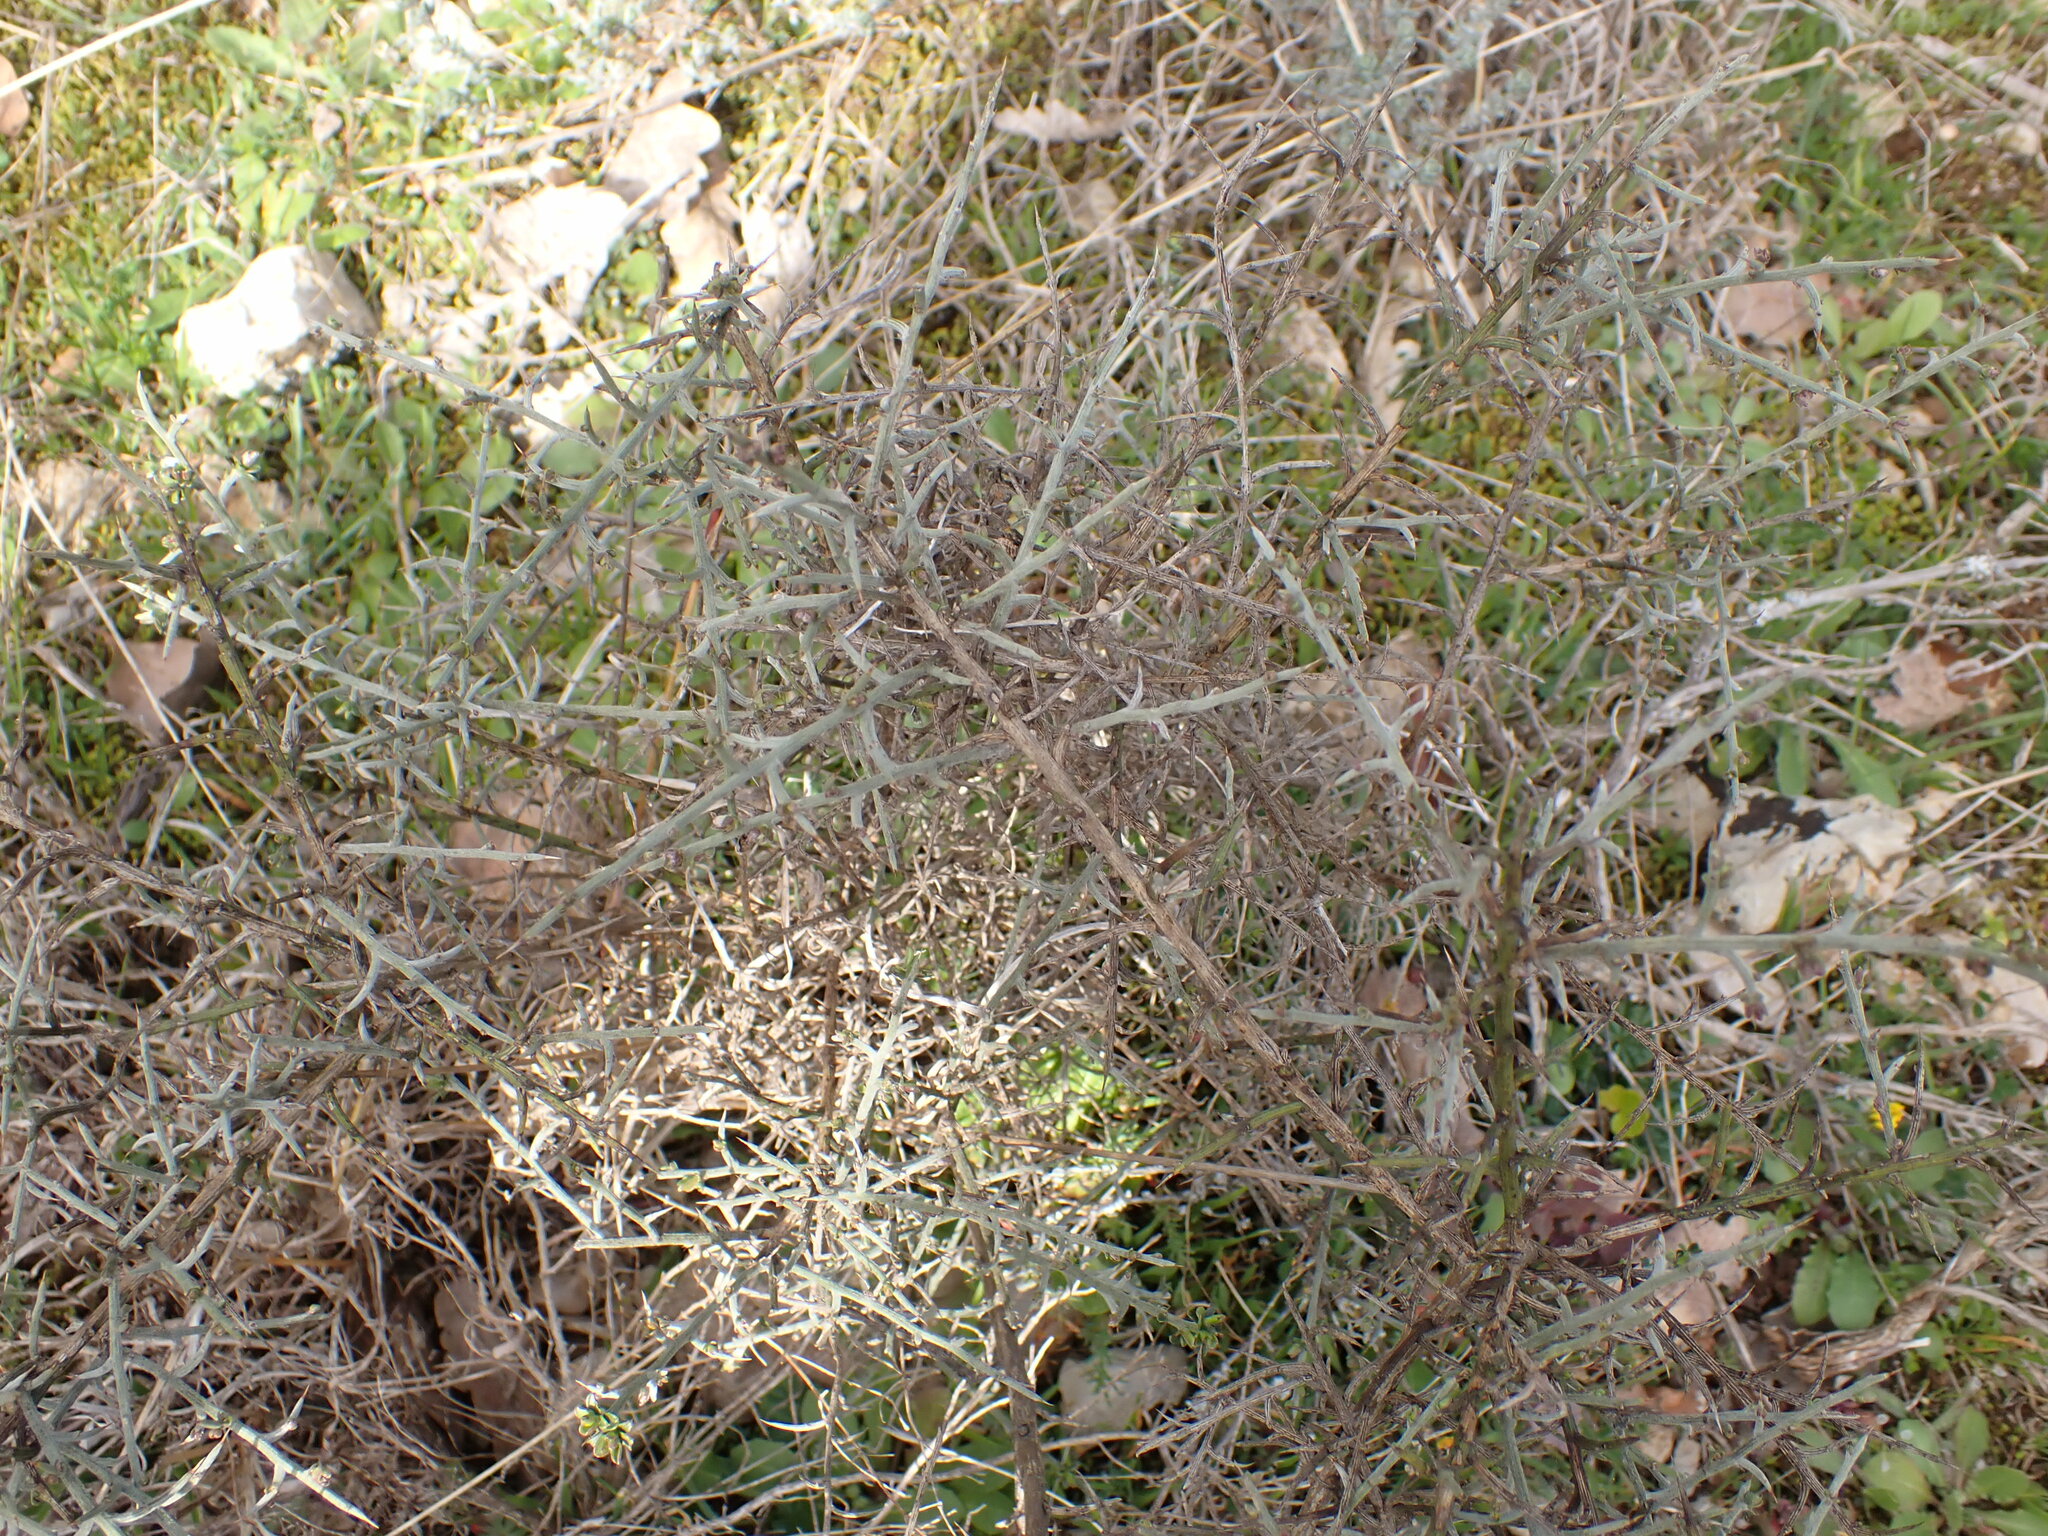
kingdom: Plantae
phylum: Tracheophyta
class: Magnoliopsida
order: Fabales
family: Fabaceae
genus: Genista
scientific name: Genista scorpius
